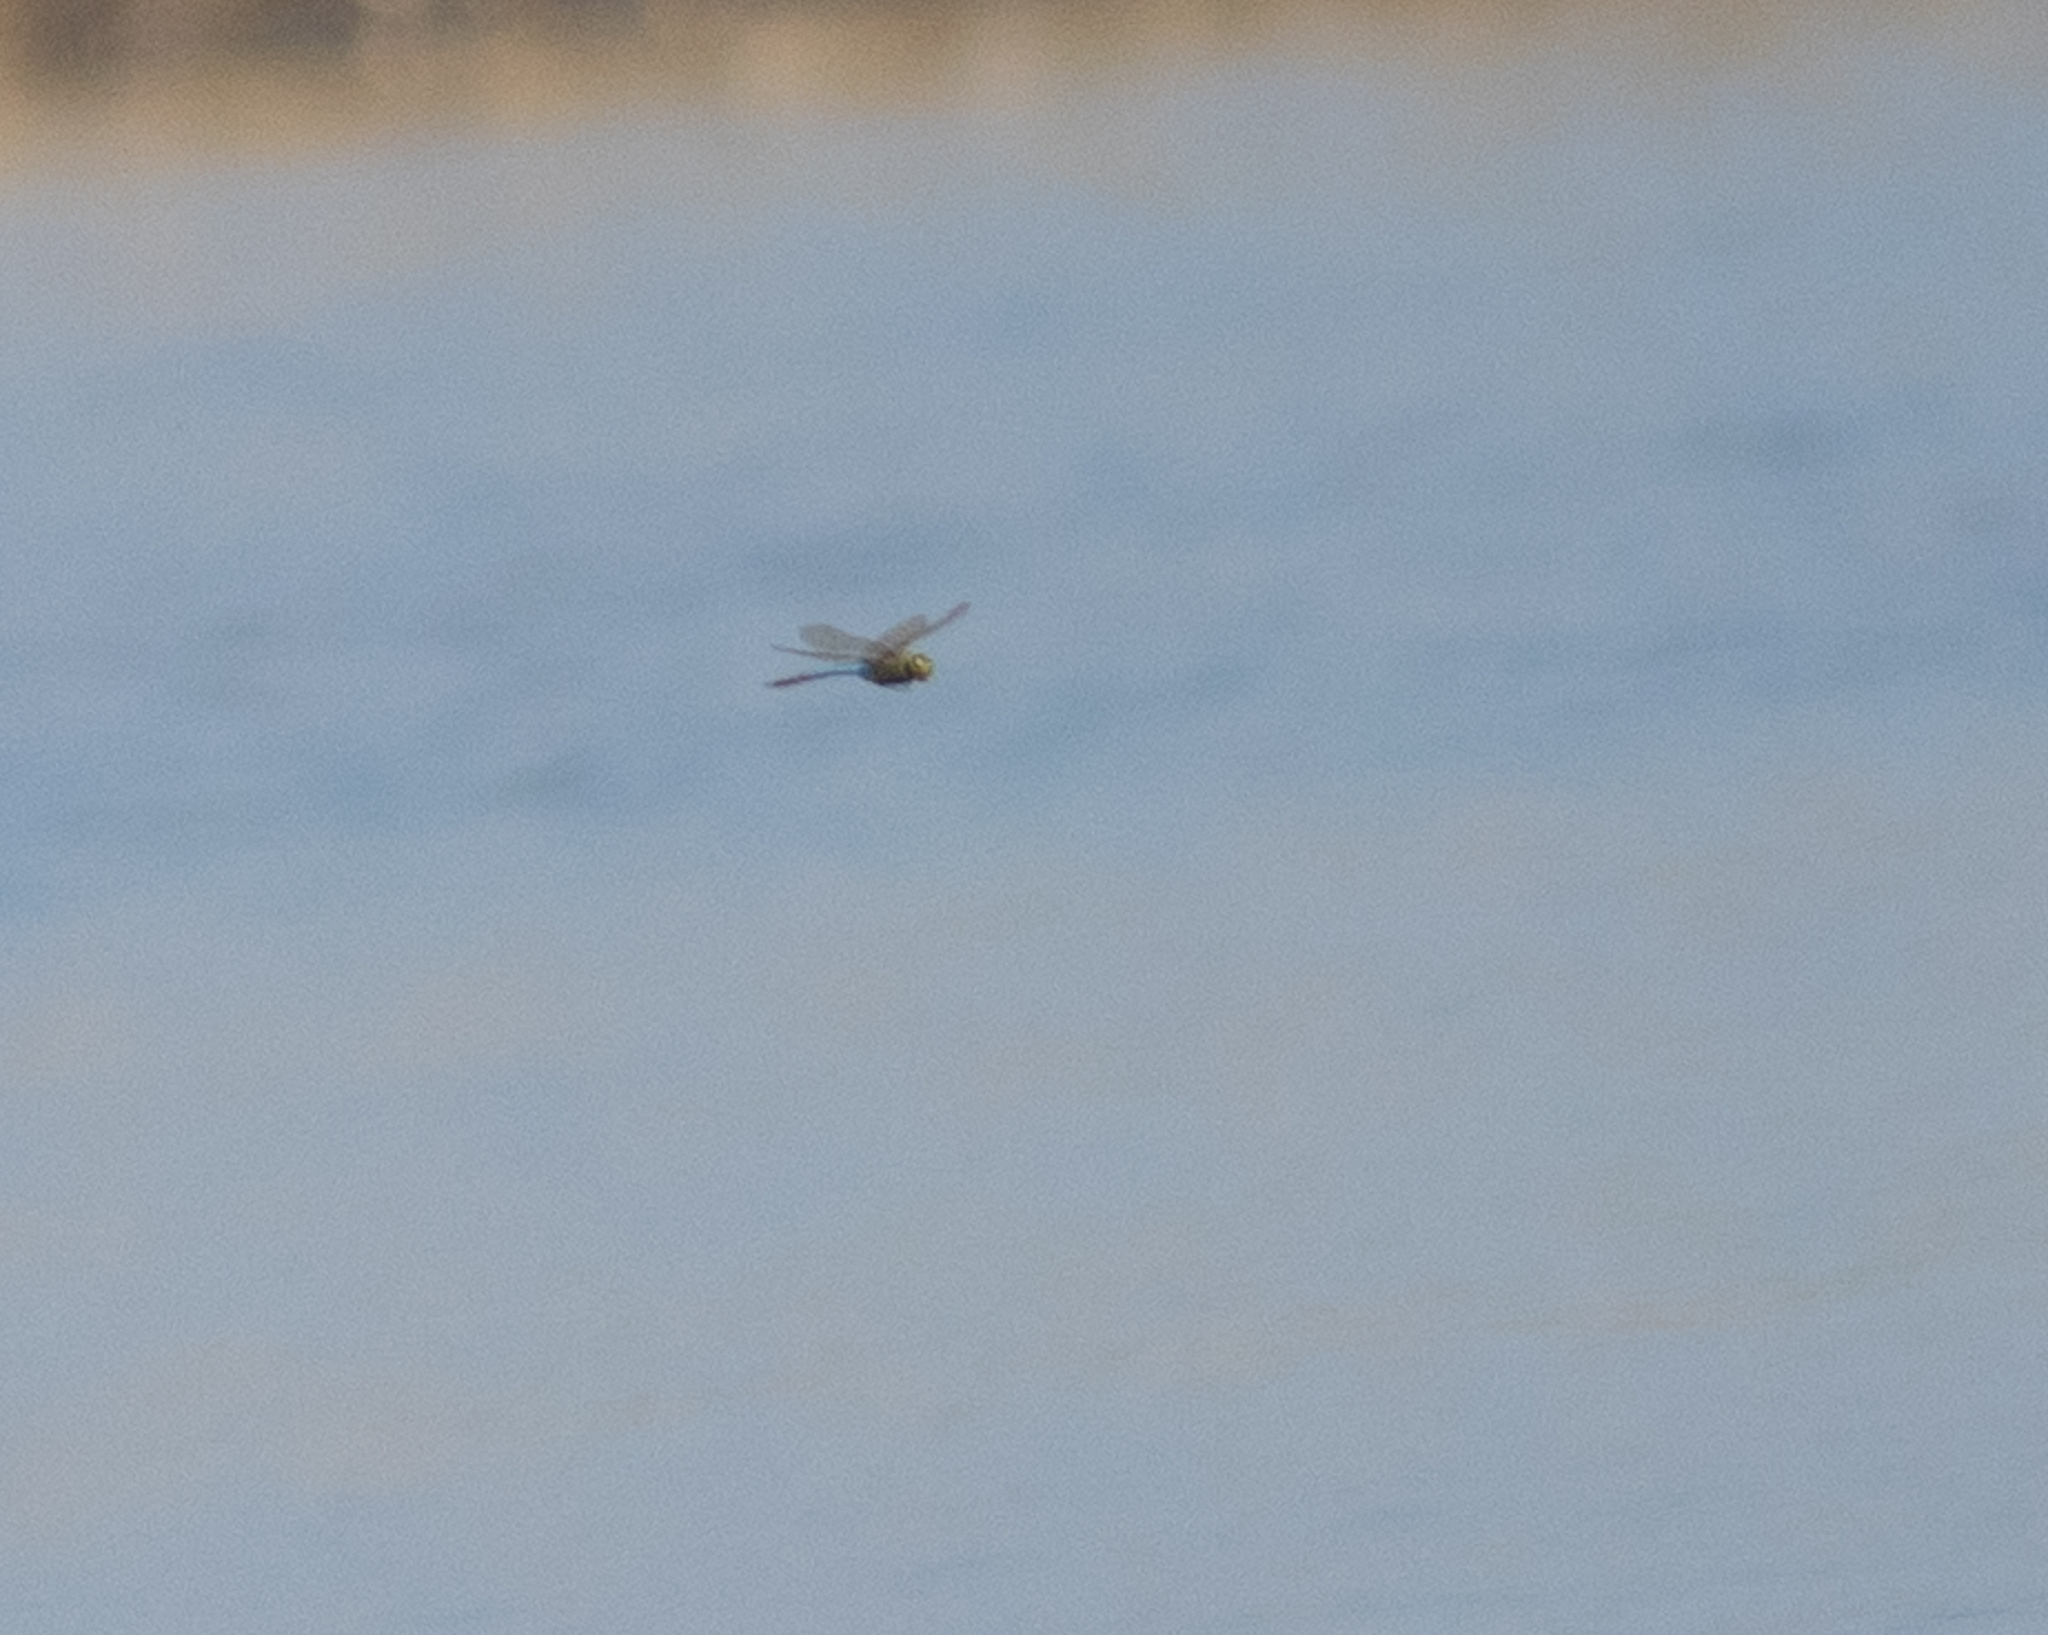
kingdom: Animalia
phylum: Arthropoda
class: Insecta
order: Odonata
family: Aeshnidae
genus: Anax
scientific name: Anax junius
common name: Common green darner
